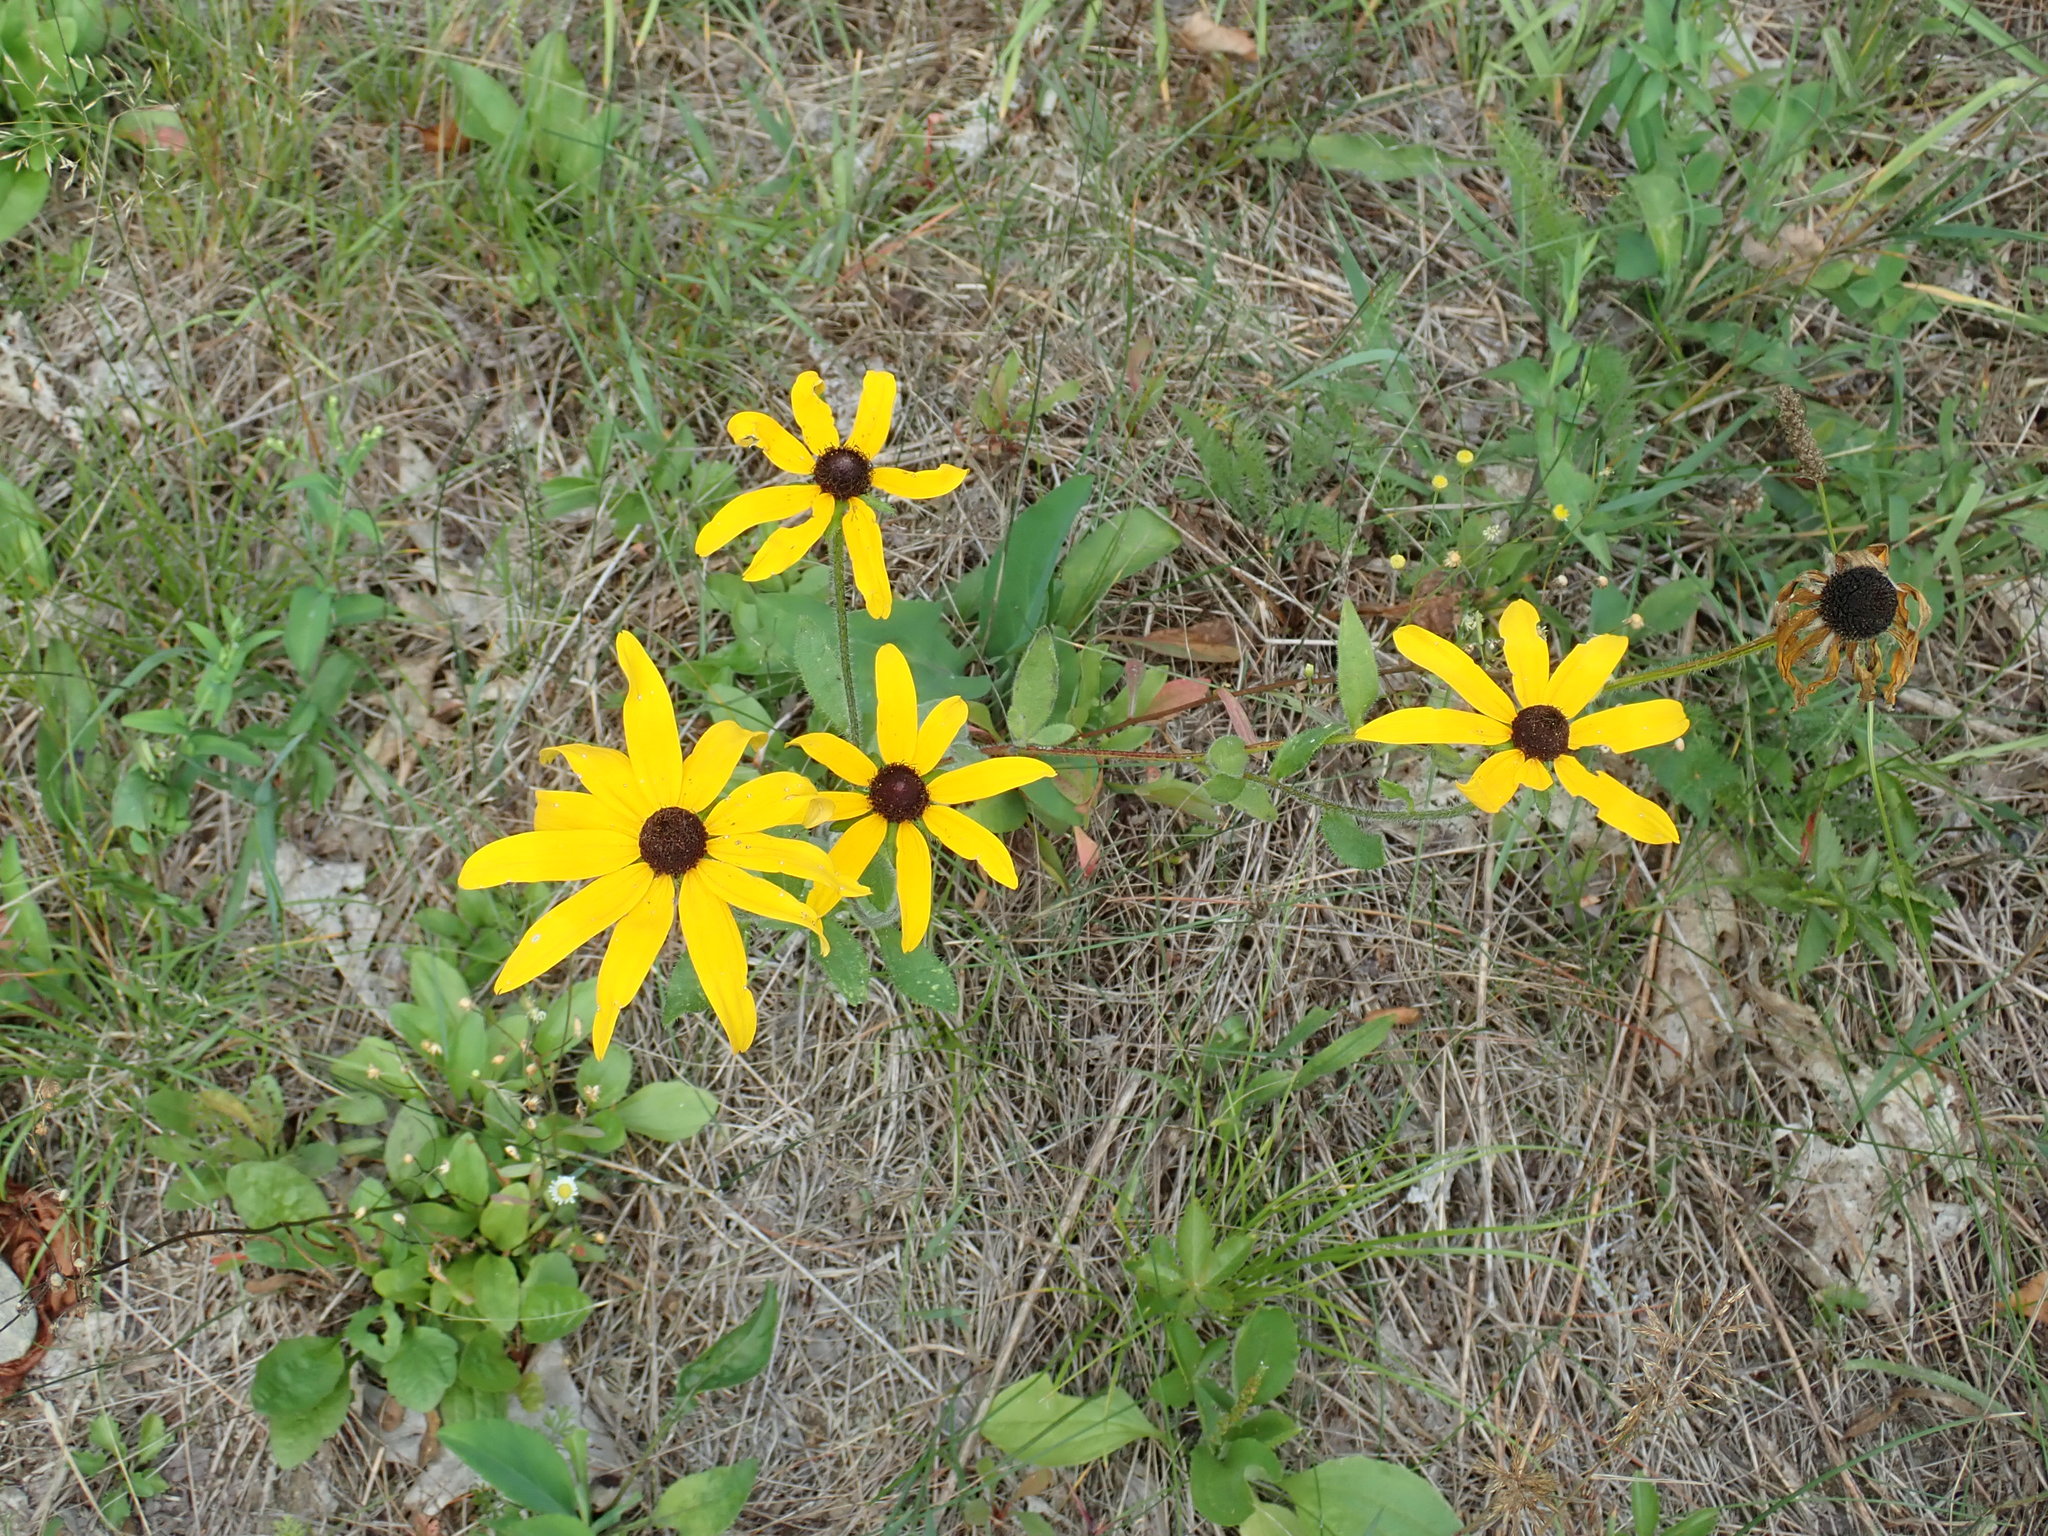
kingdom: Plantae
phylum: Tracheophyta
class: Magnoliopsida
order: Asterales
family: Asteraceae
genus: Rudbeckia
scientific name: Rudbeckia hirta
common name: Black-eyed-susan
